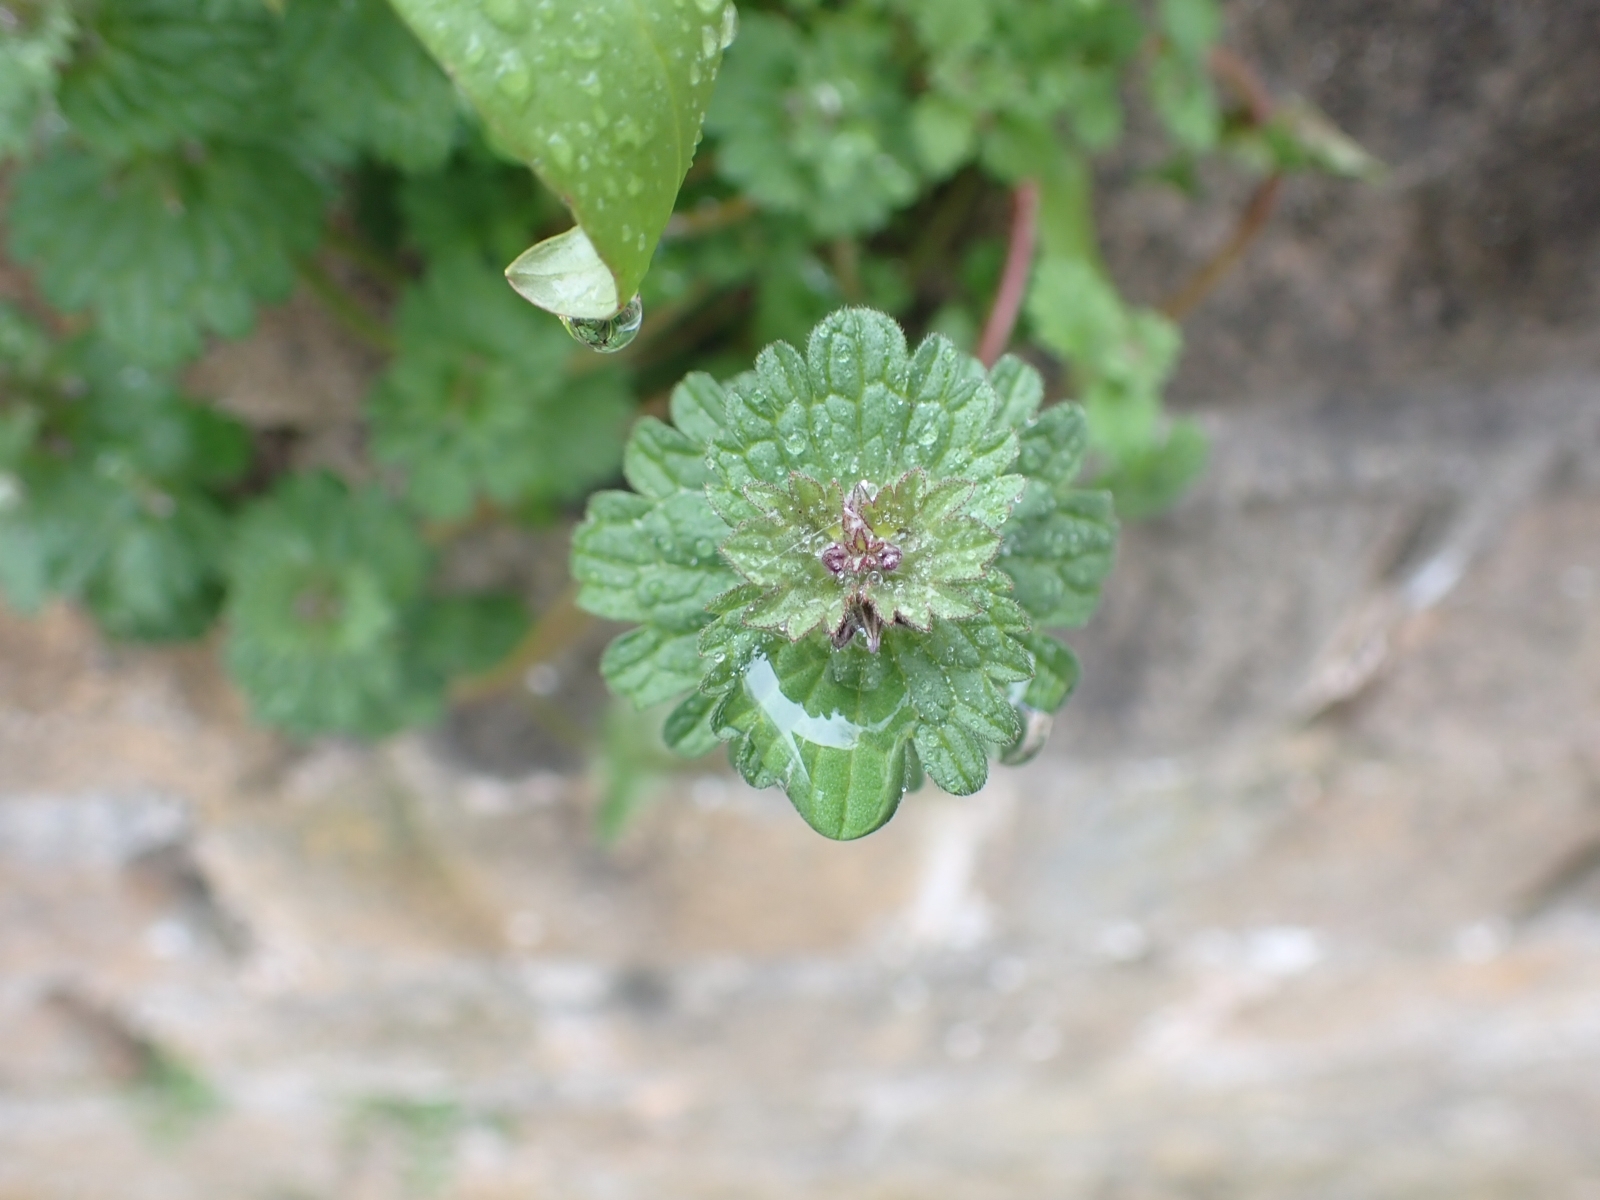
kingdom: Plantae
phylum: Tracheophyta
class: Magnoliopsida
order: Lamiales
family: Lamiaceae
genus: Lamium
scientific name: Lamium amplexicaule
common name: Henbit dead-nettle
